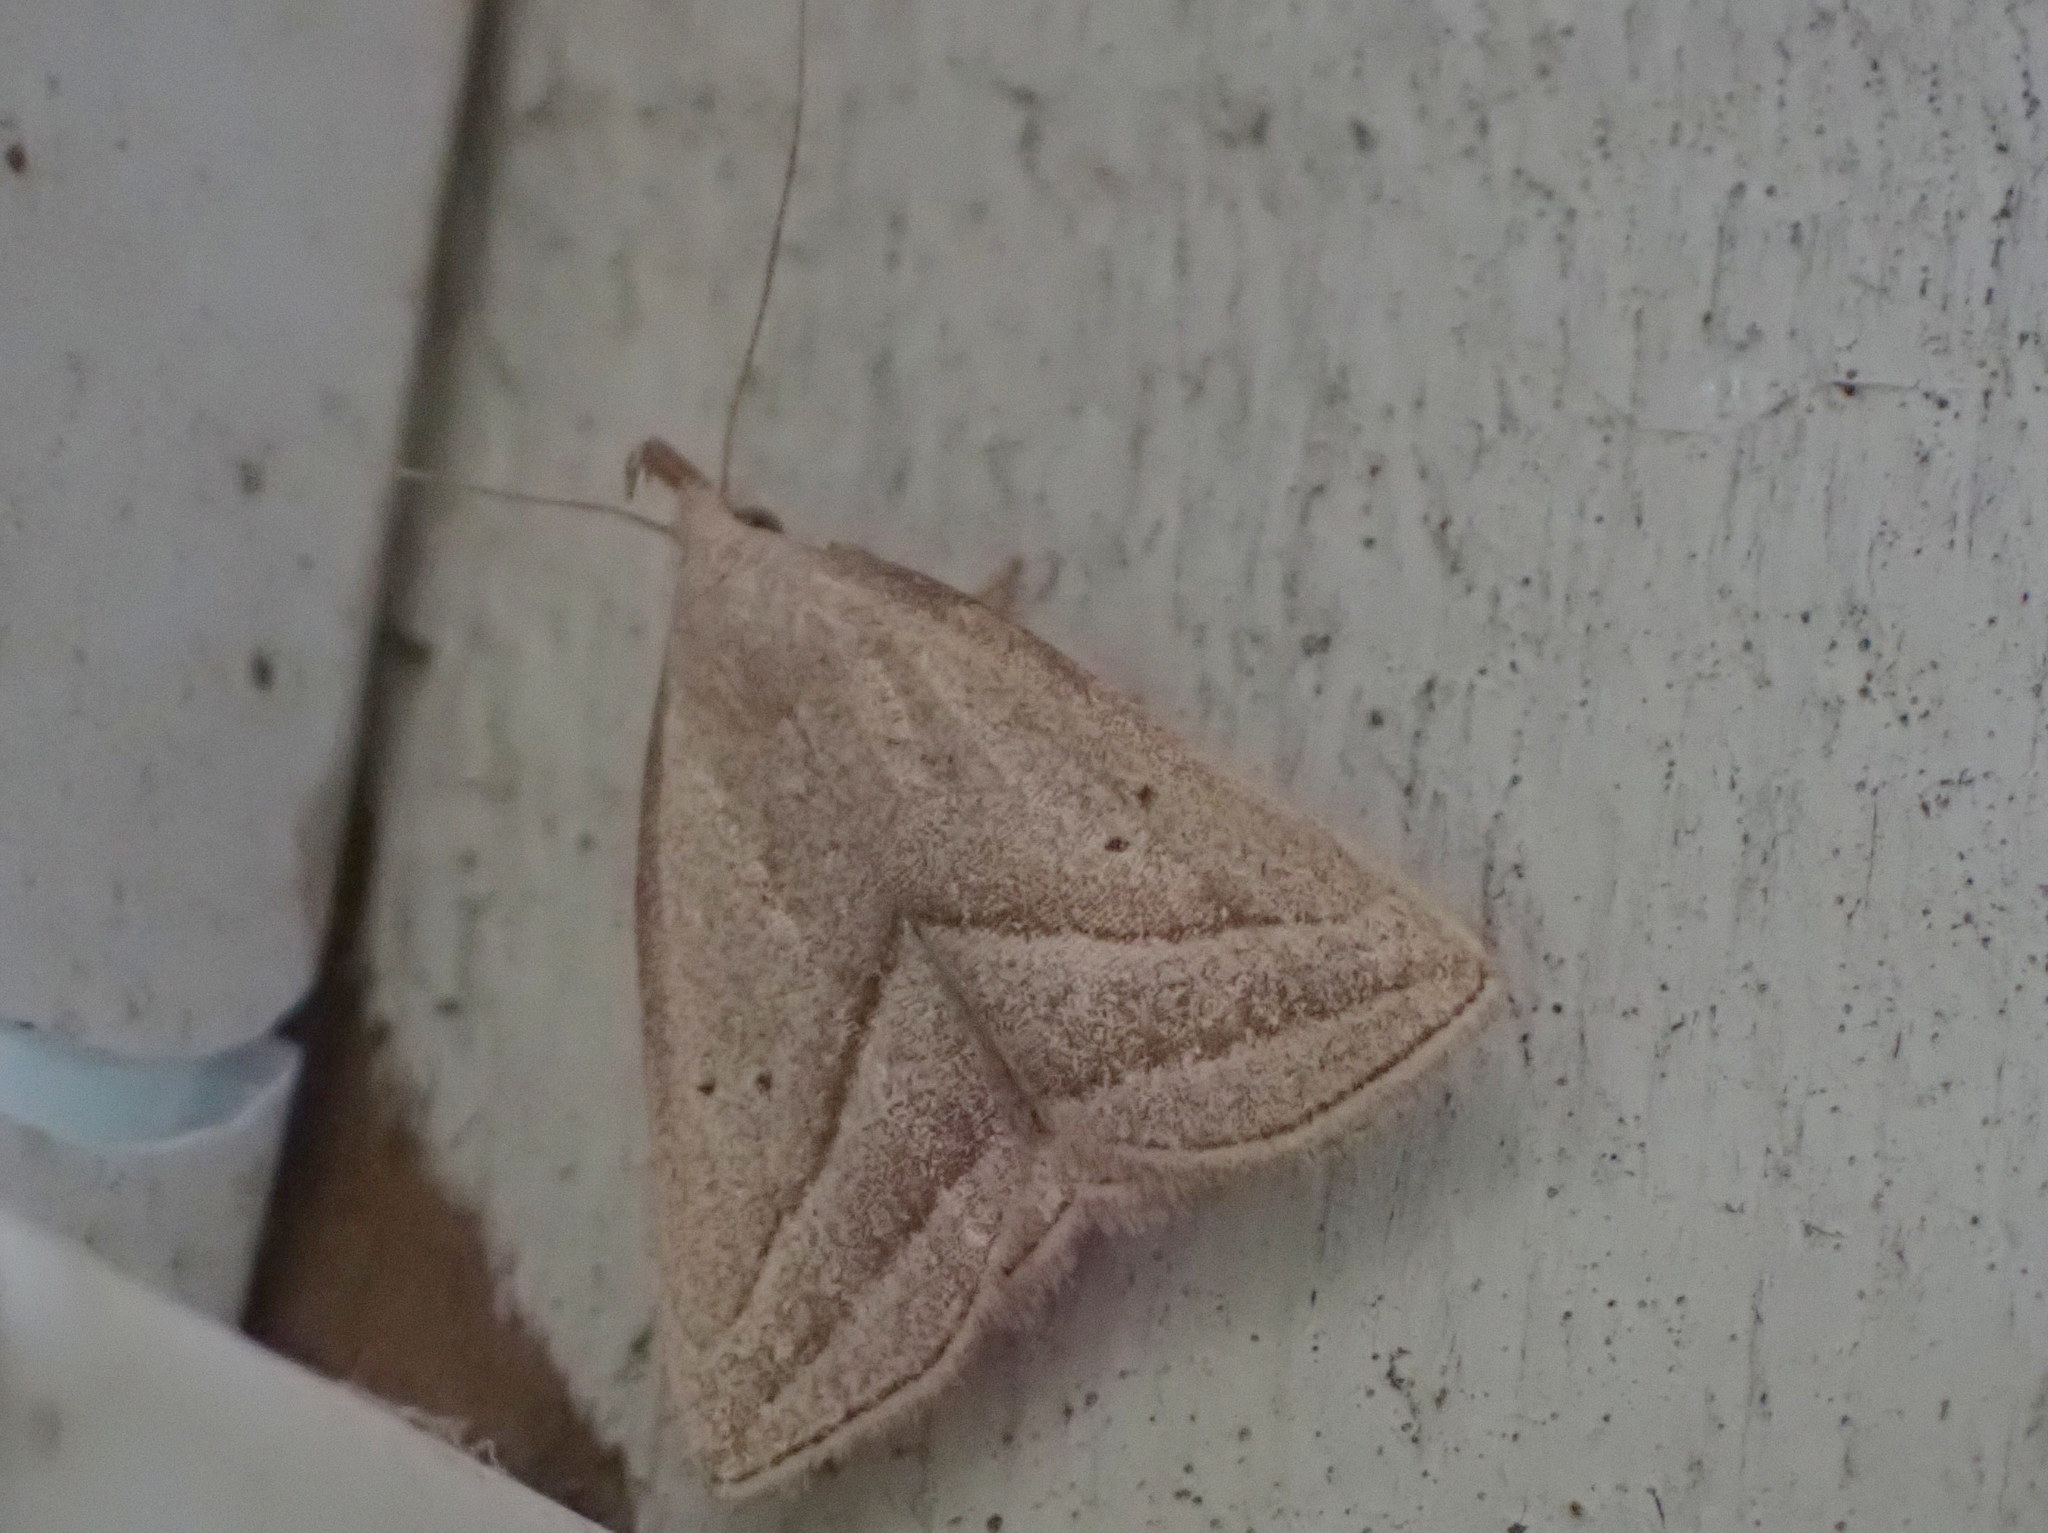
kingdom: Animalia
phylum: Arthropoda
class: Insecta
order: Lepidoptera
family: Erebidae
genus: Macrochilo
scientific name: Macrochilo absorptalis
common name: Slant-lined owlet
